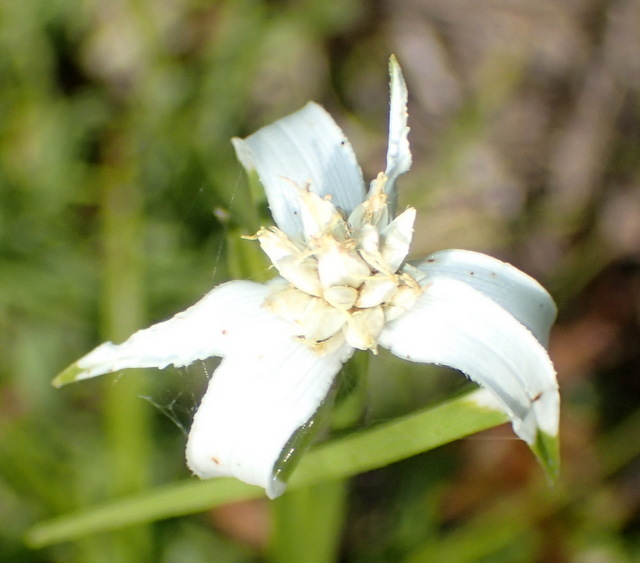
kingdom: Plantae
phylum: Tracheophyta
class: Liliopsida
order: Poales
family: Cyperaceae
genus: Rhynchospora
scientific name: Rhynchospora colorata
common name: Star sedge
